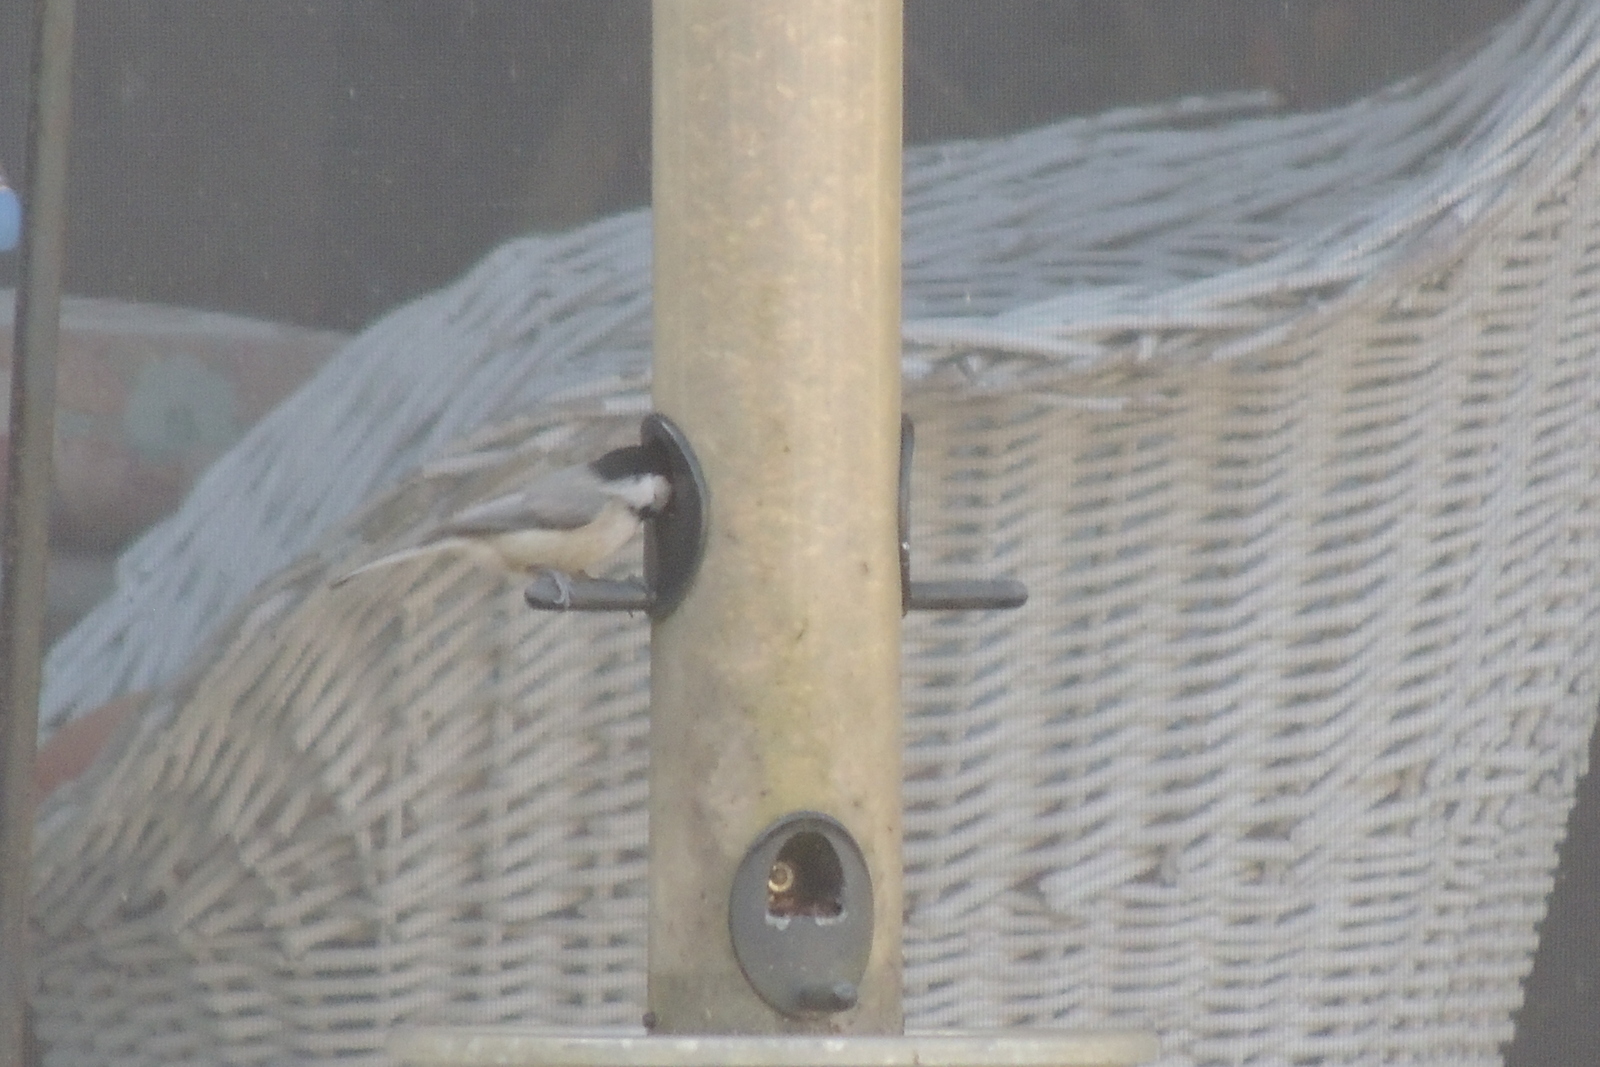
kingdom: Animalia
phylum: Chordata
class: Aves
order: Passeriformes
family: Paridae
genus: Poecile
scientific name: Poecile carolinensis
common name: Carolina chickadee
